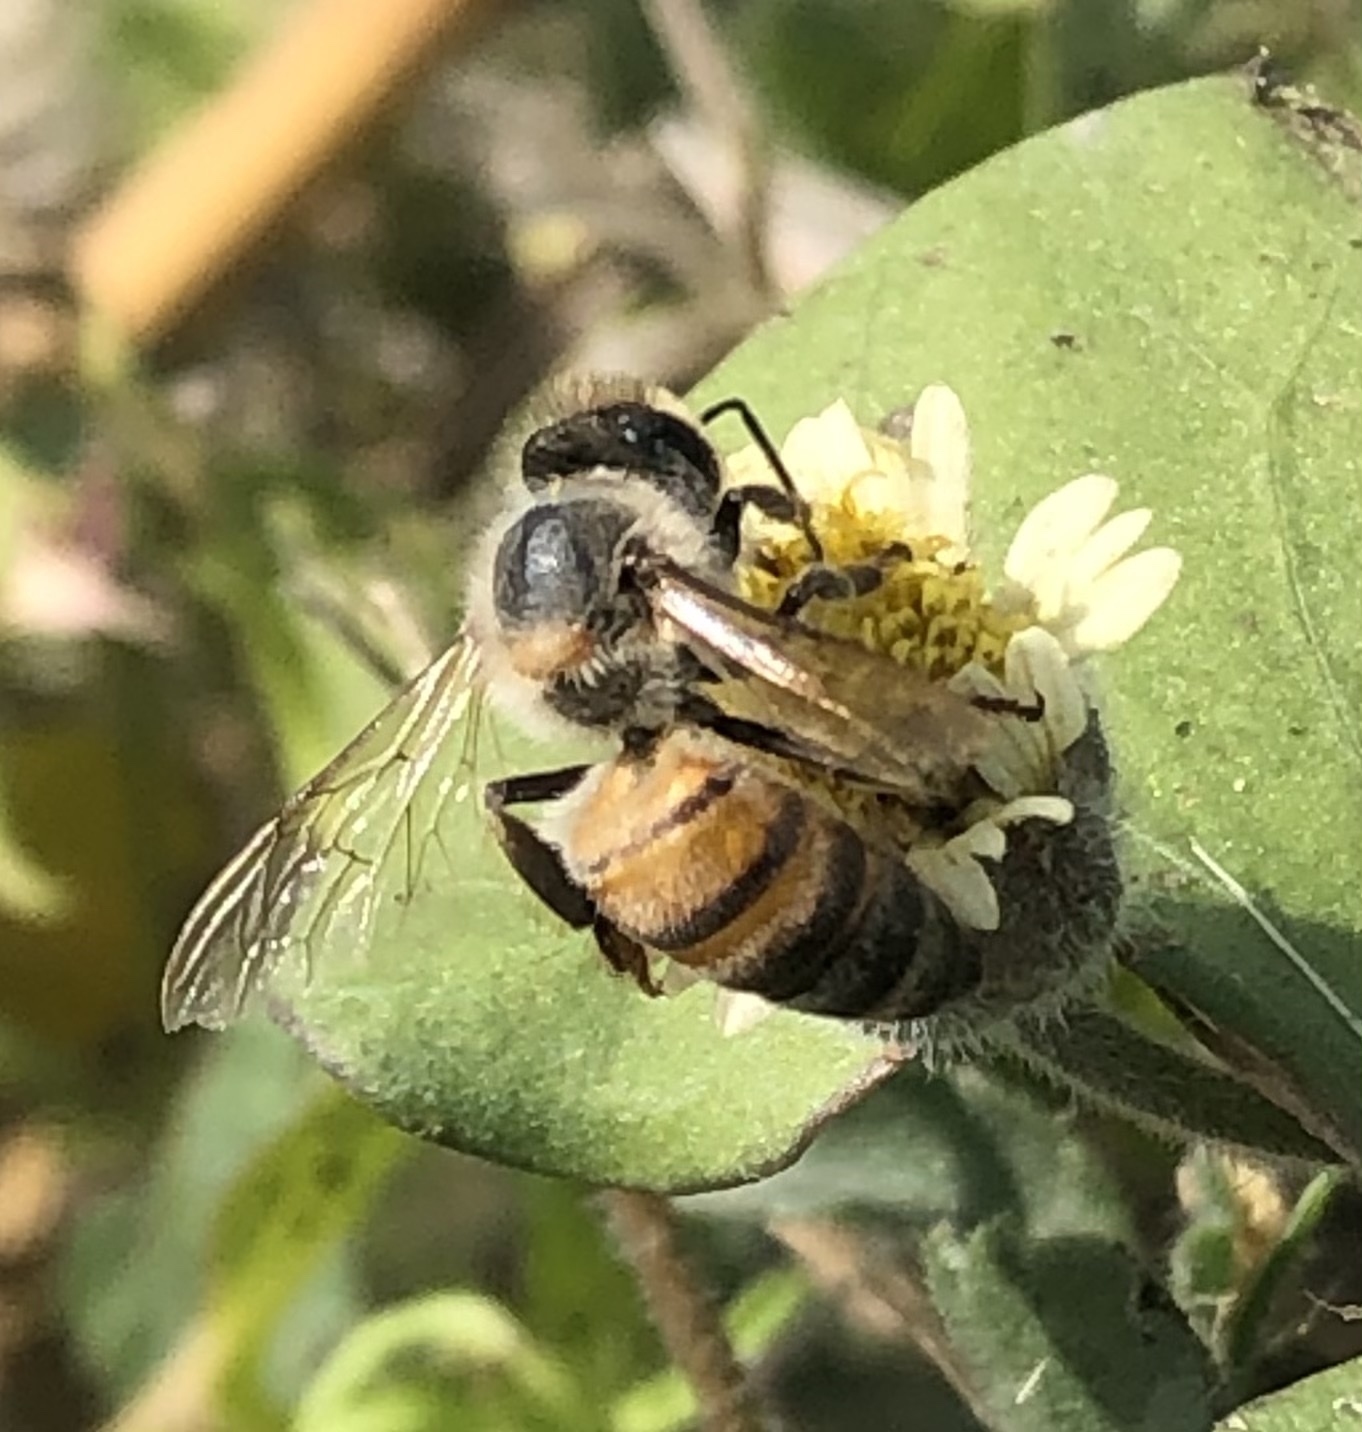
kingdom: Animalia
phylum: Arthropoda
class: Insecta
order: Hymenoptera
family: Apidae
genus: Apis
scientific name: Apis mellifera
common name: Honey bee
